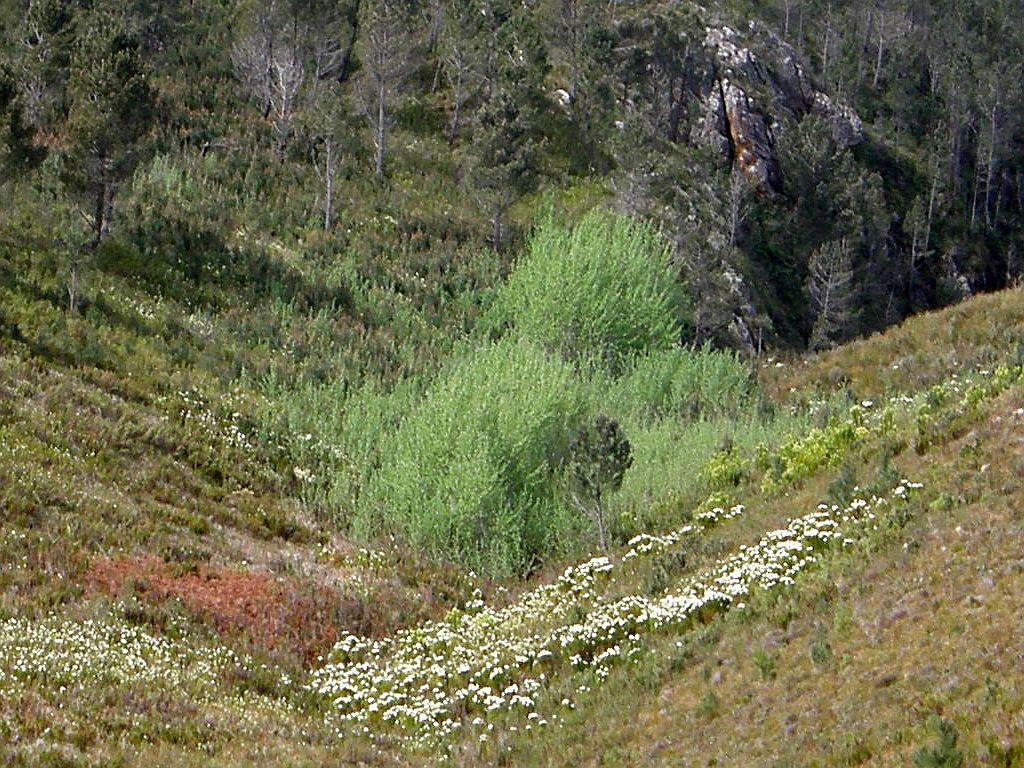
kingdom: Plantae
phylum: Tracheophyta
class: Magnoliopsida
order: Malpighiales
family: Salicaceae
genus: Populus
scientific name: Populus canescens
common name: Gray poplar
